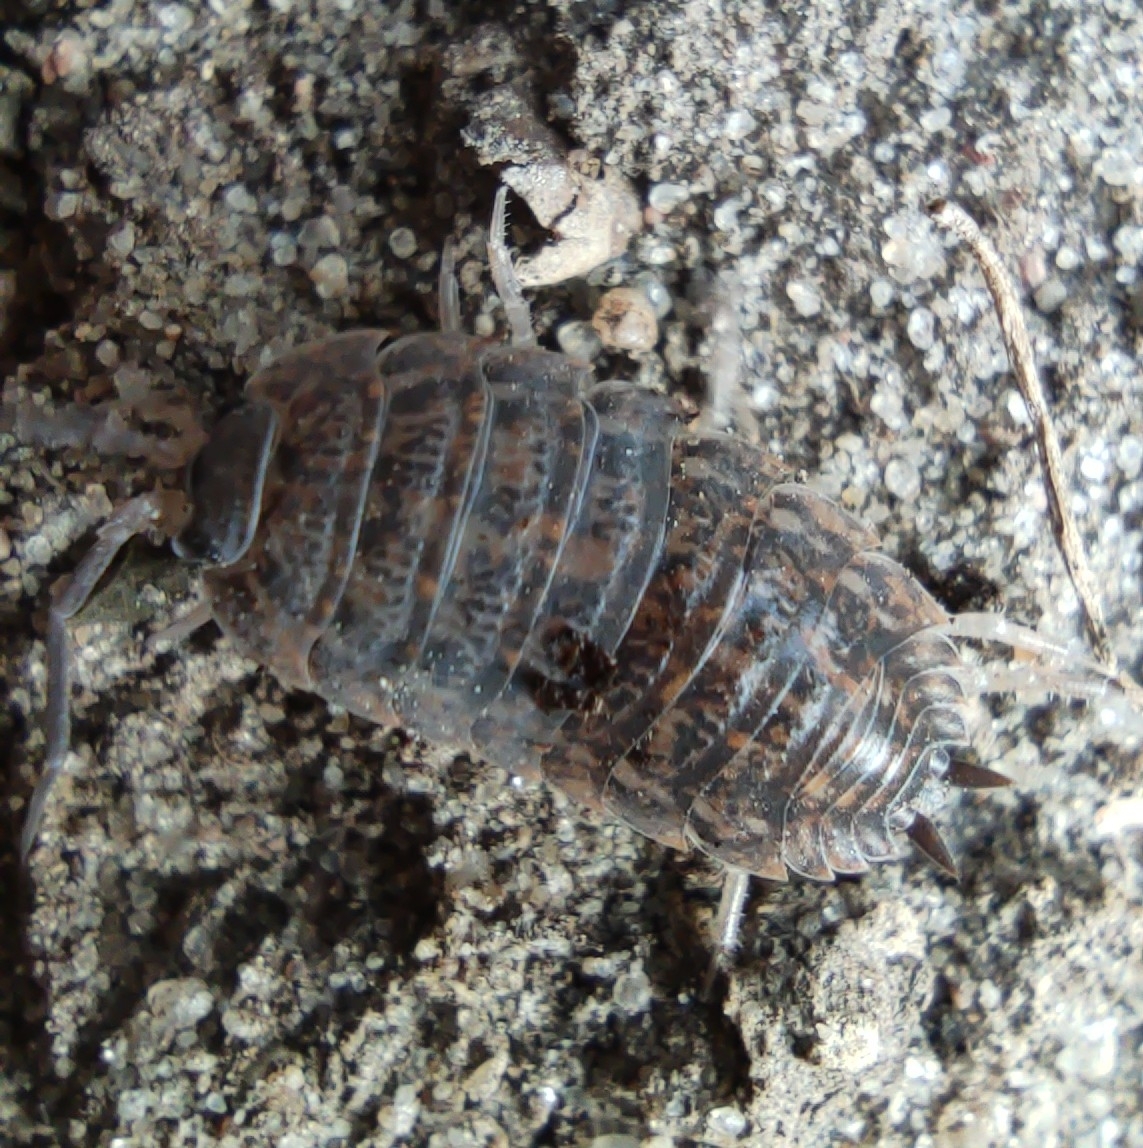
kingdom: Animalia
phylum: Arthropoda
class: Malacostraca
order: Isopoda
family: Trachelipodidae
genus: Trachelipus
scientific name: Trachelipus rathkii
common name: Isopod
